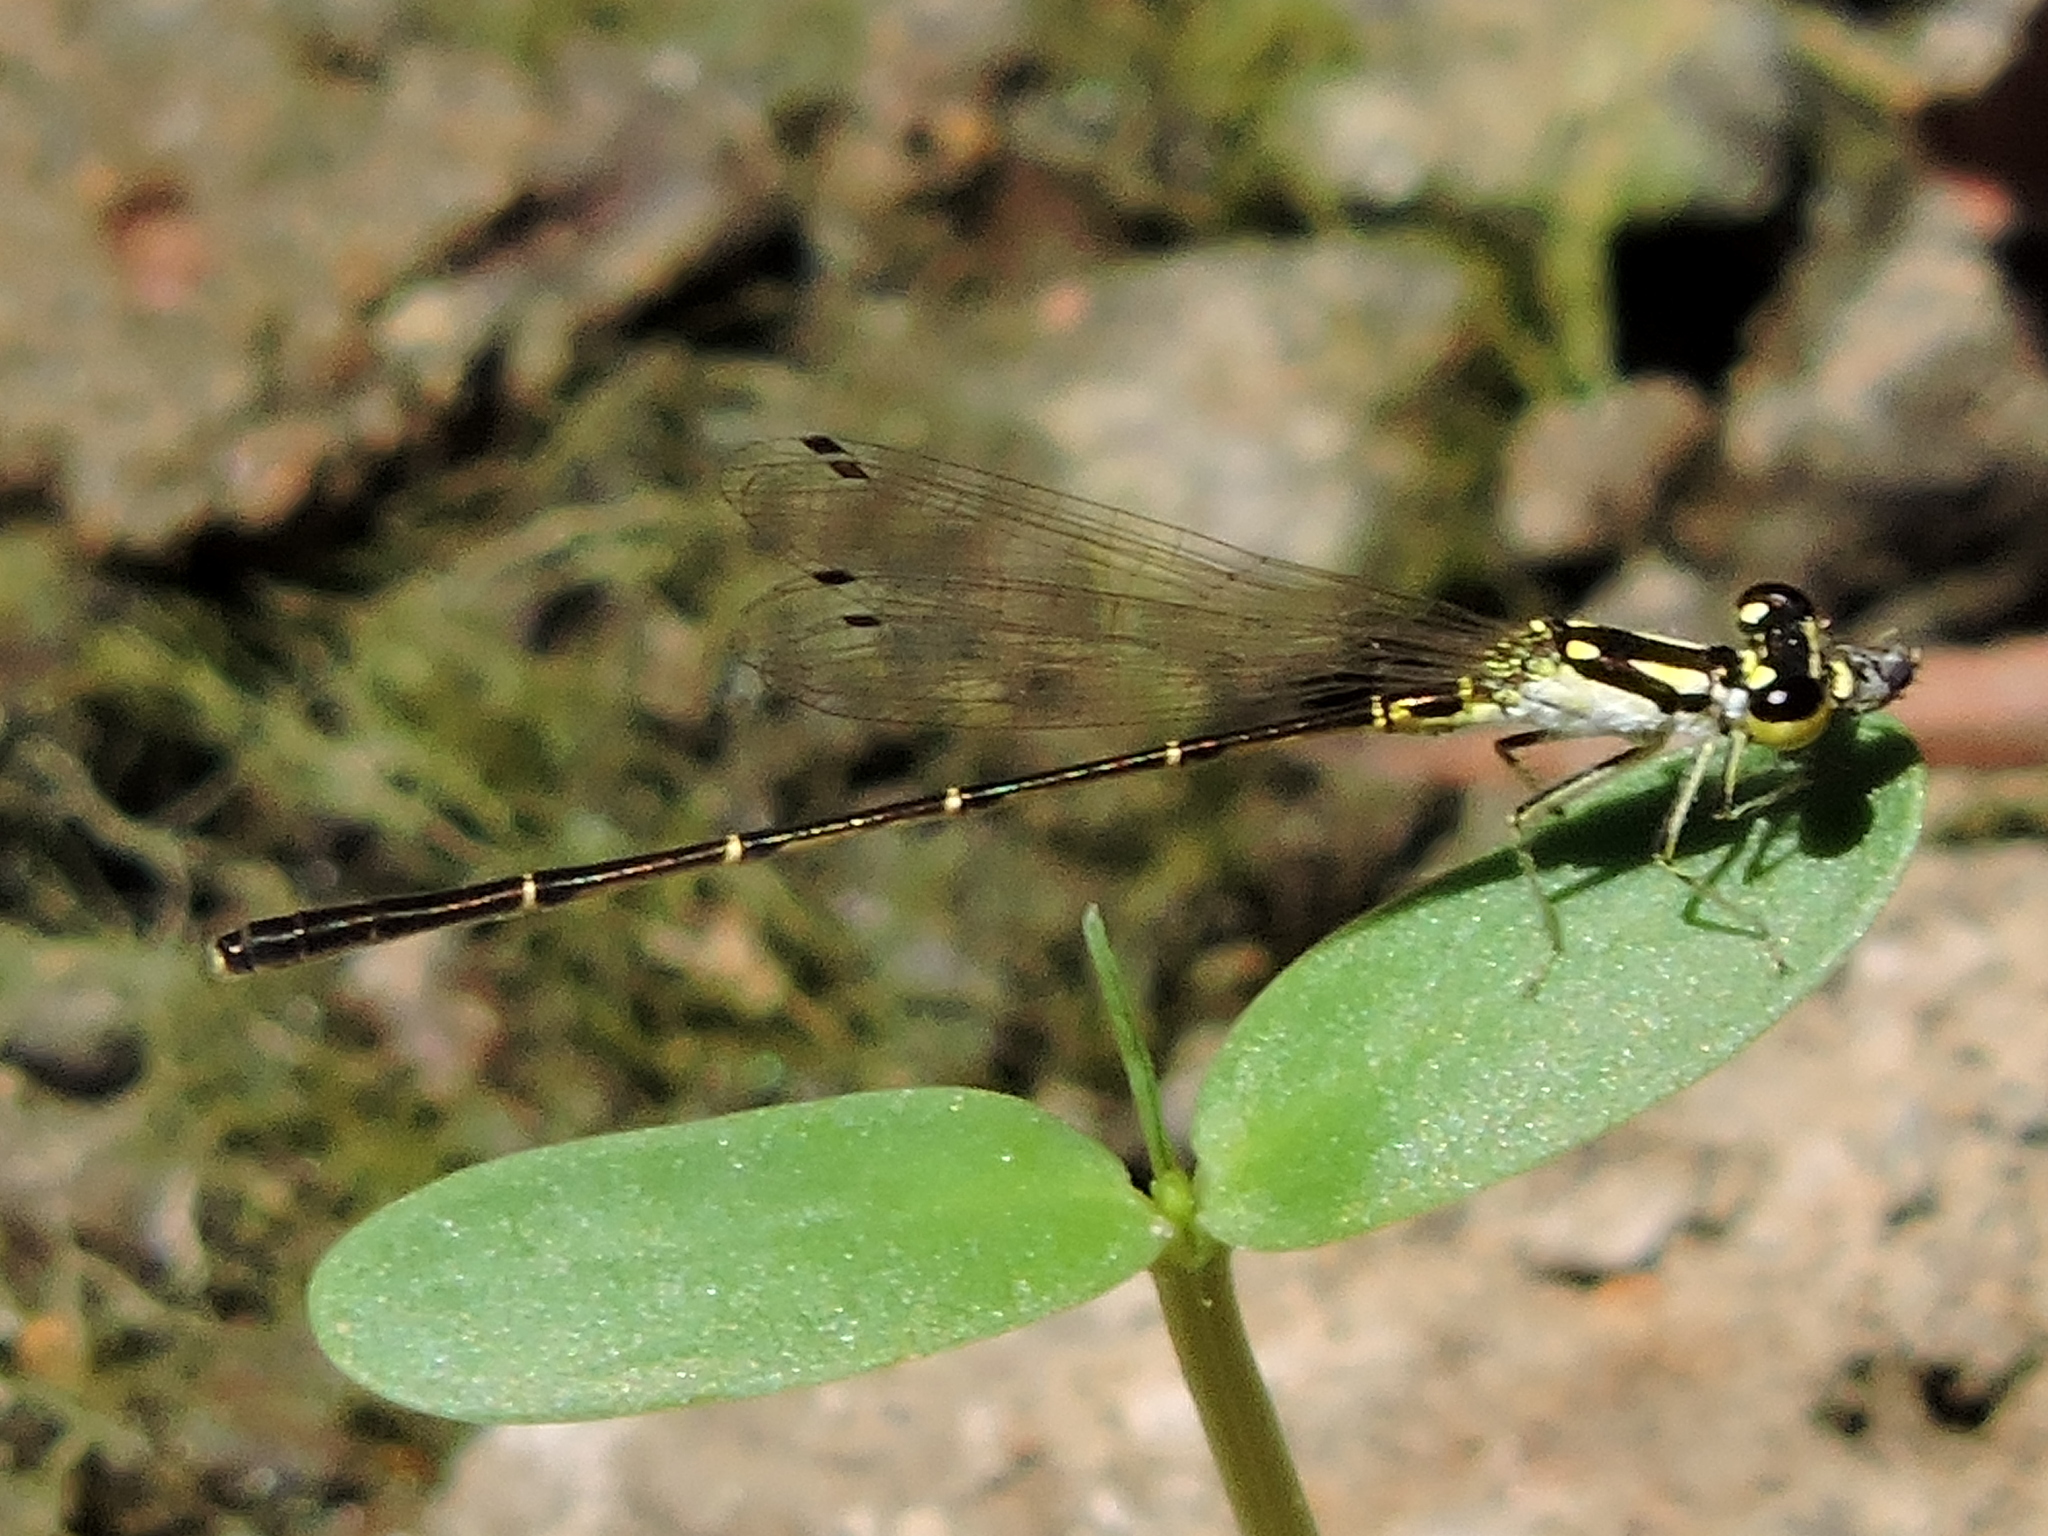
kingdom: Animalia
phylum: Arthropoda
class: Insecta
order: Odonata
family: Coenagrionidae
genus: Ischnura
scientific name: Ischnura posita
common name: Fragile forktail
